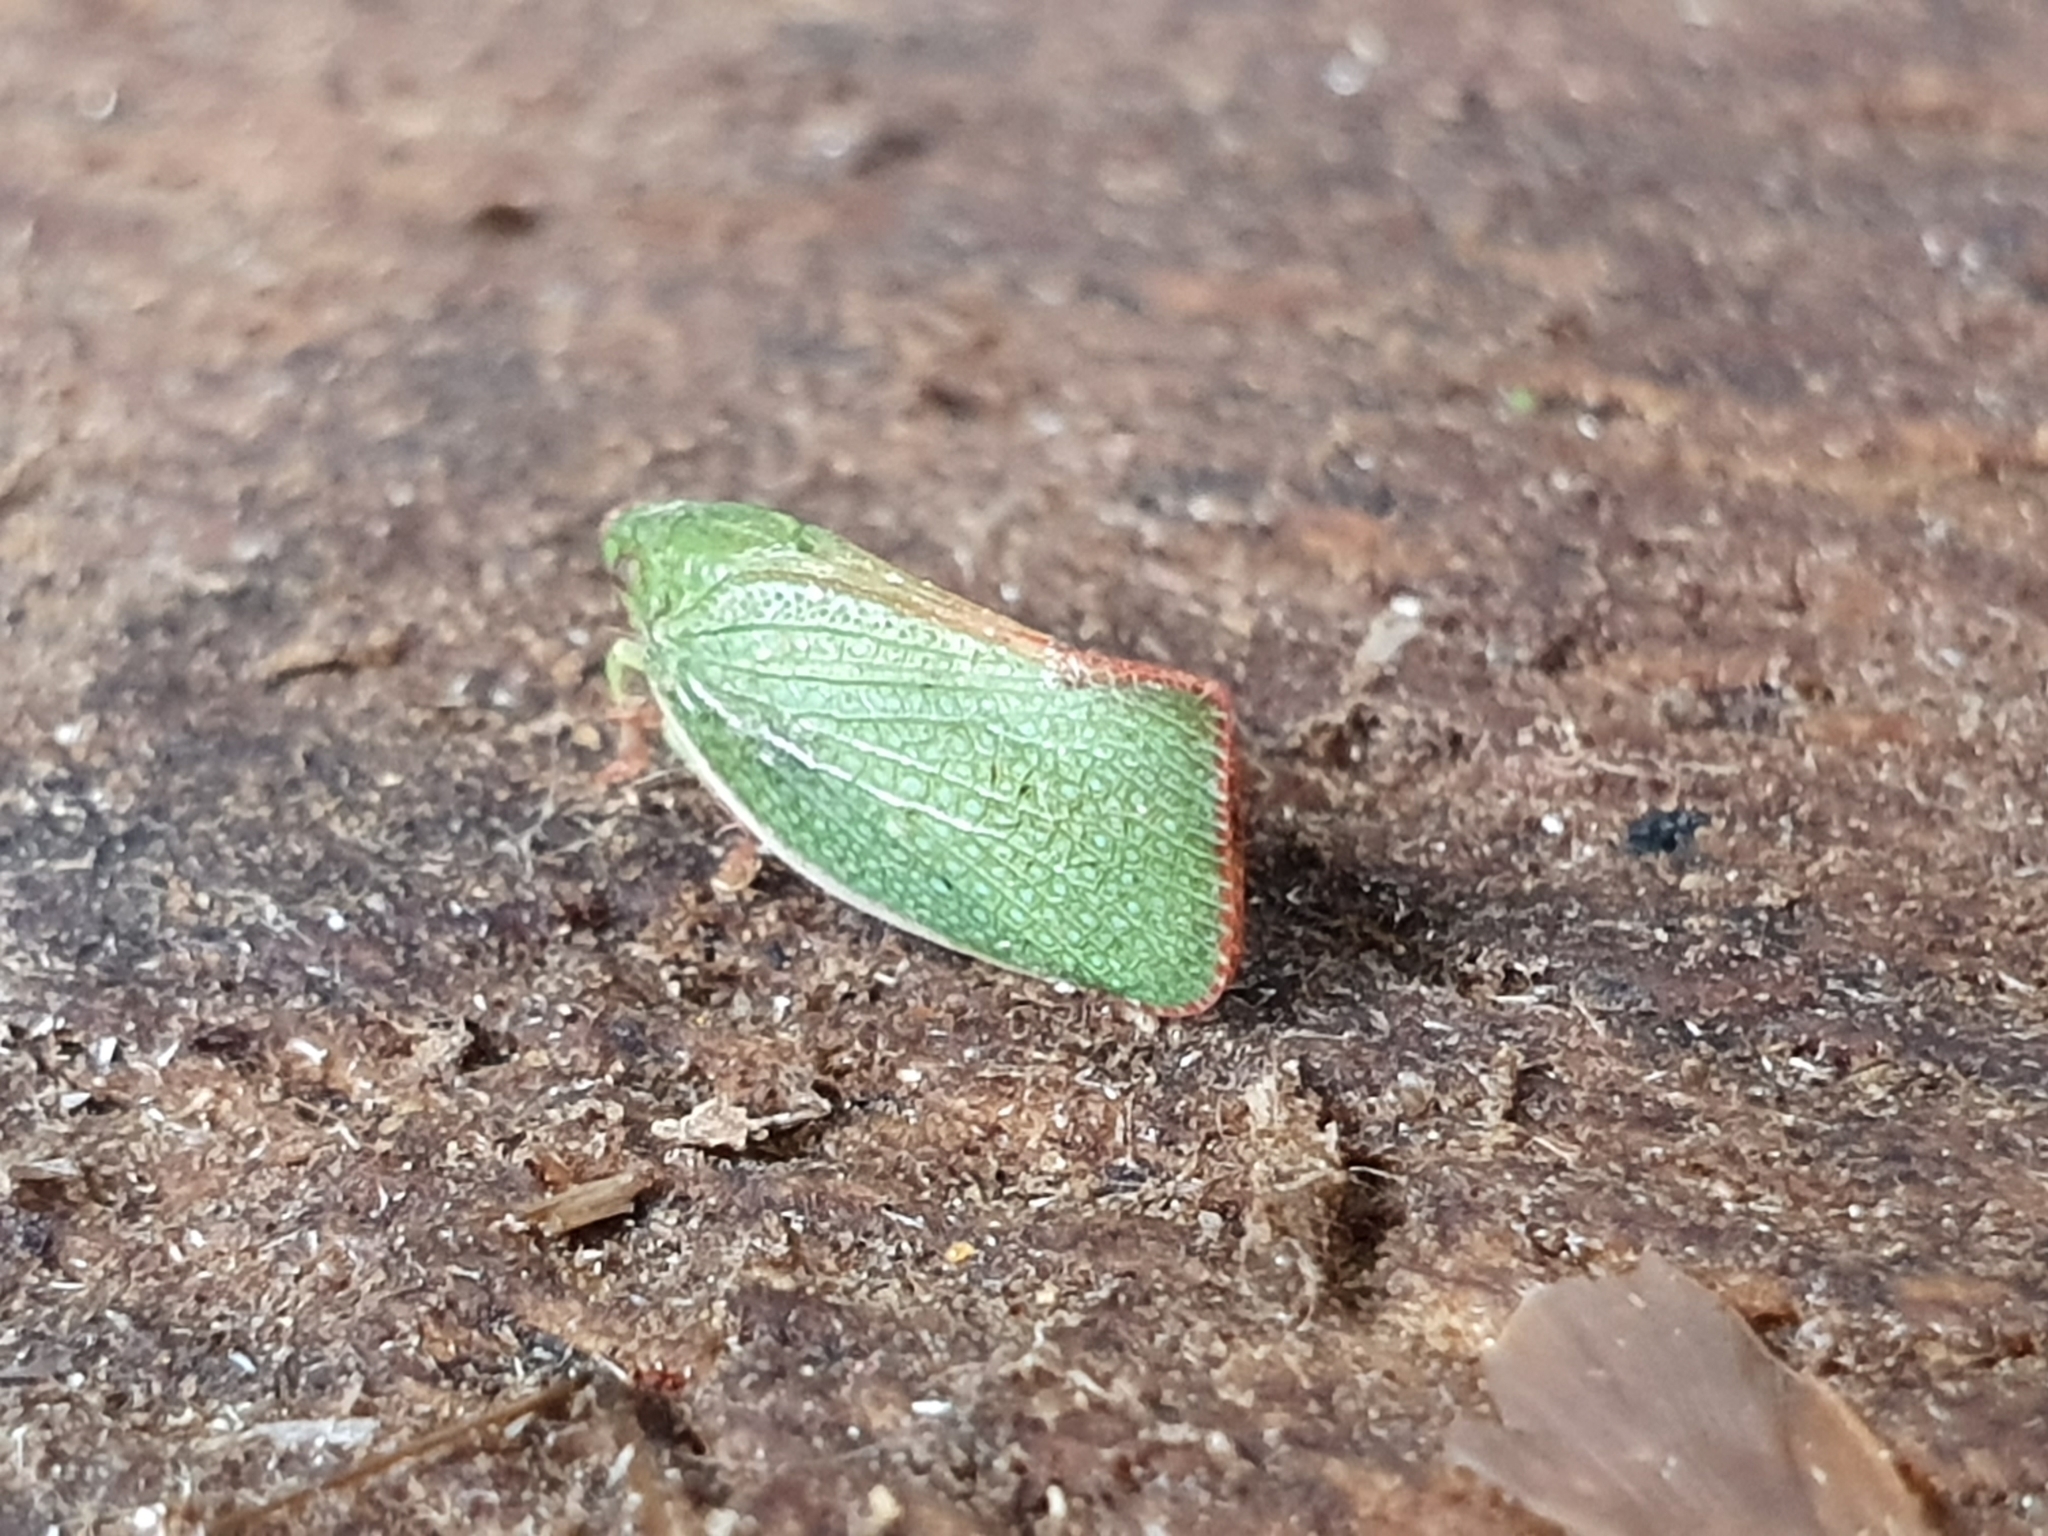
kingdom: Animalia
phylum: Arthropoda
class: Insecta
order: Hemiptera
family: Flatidae
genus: Siphanta
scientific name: Siphanta acuta
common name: Torpedo bug
